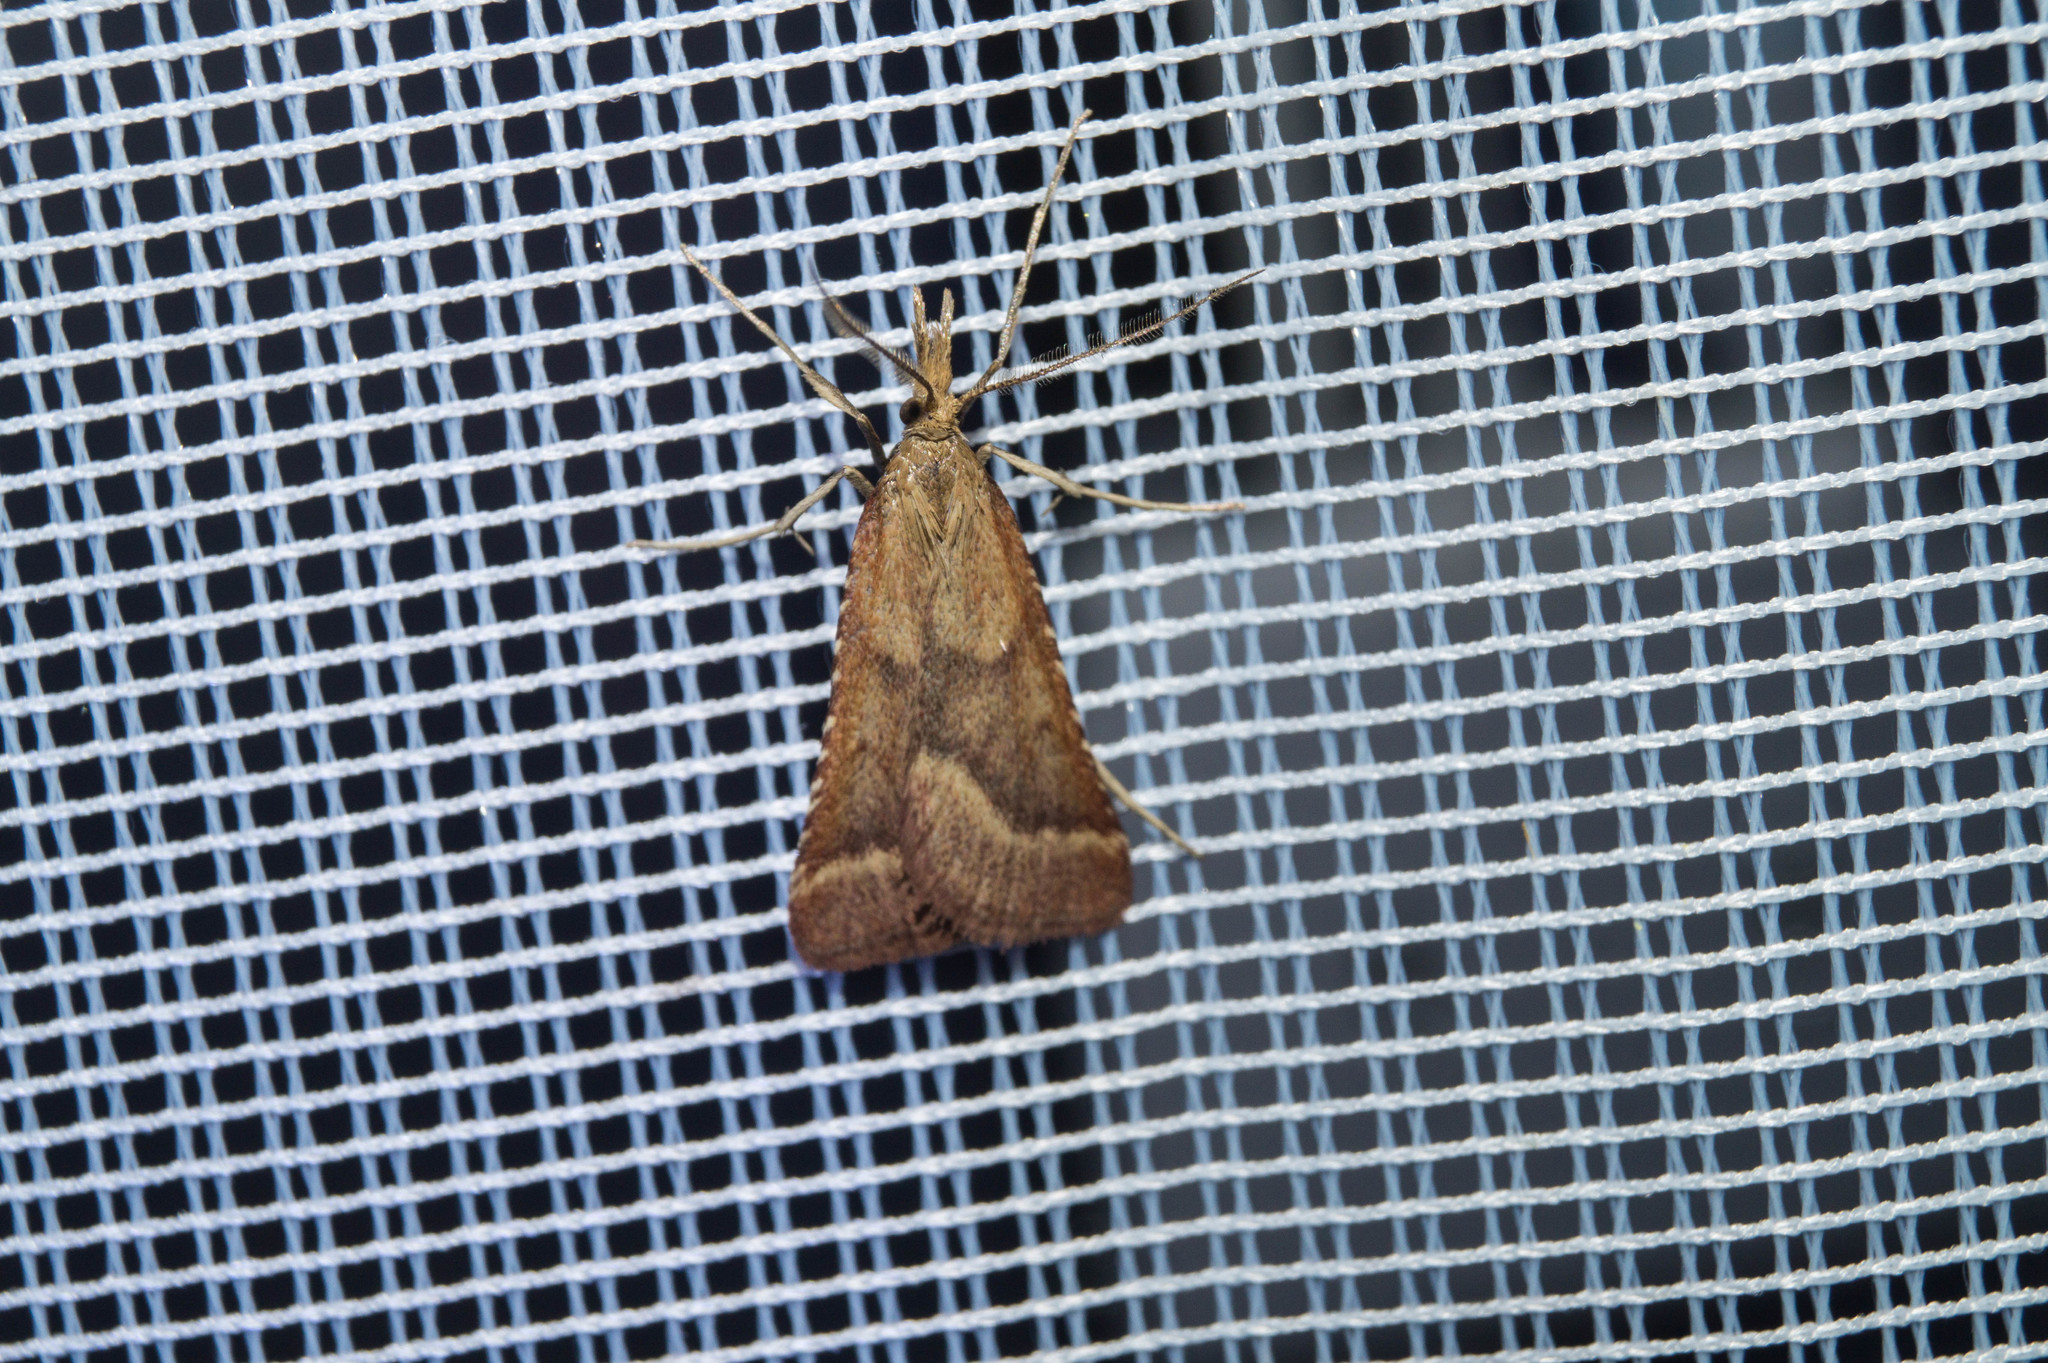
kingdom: Animalia
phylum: Arthropoda
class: Insecta
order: Lepidoptera
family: Pyralidae
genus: Synaphe
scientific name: Synaphe punctalis
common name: Long-legged tabby
